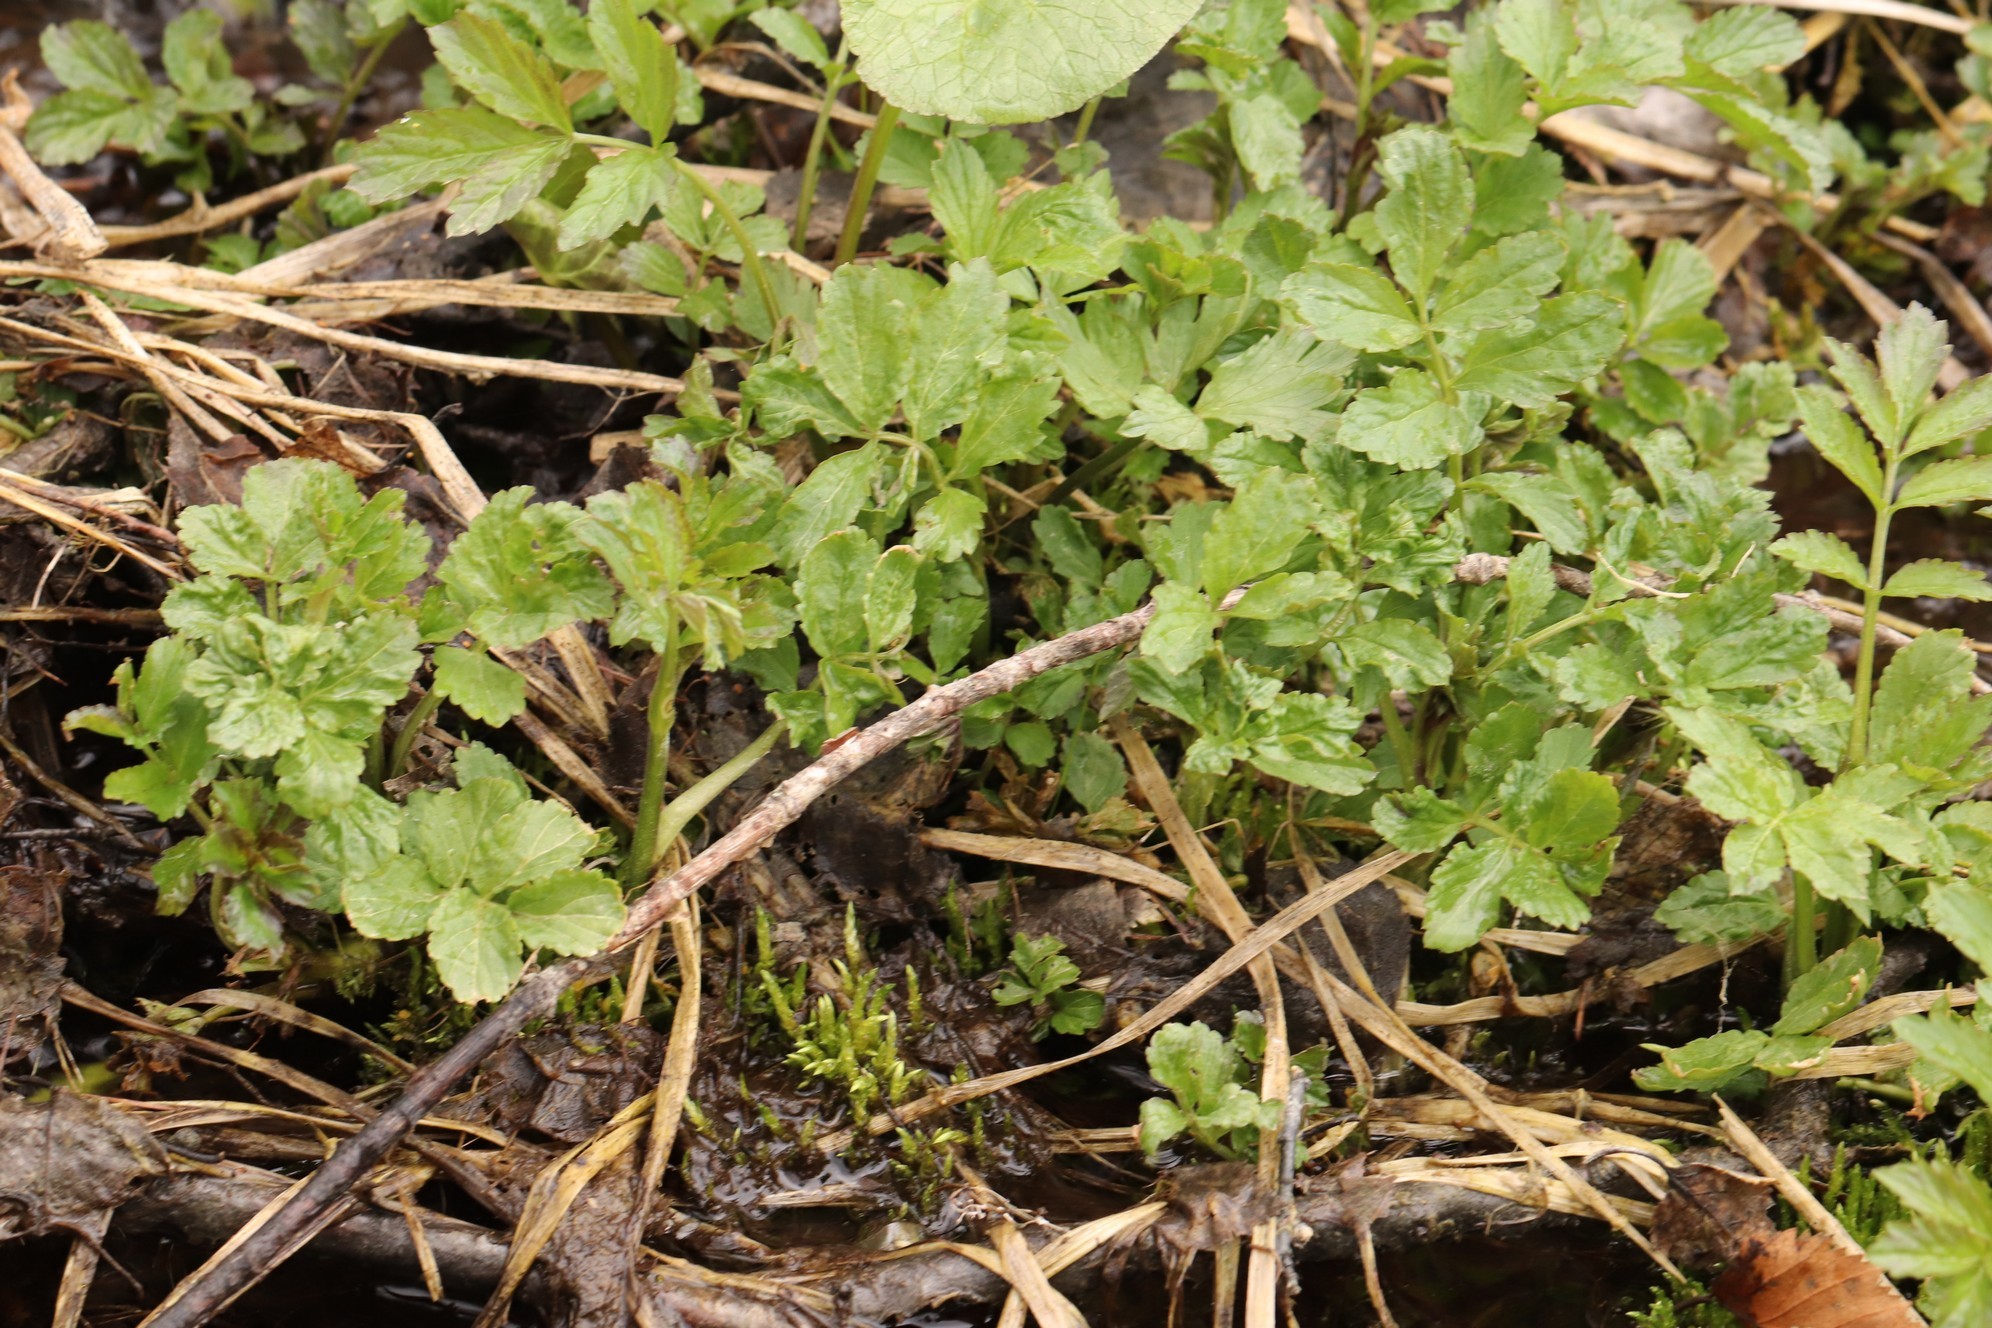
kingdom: Plantae
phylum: Tracheophyta
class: Magnoliopsida
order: Brassicales
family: Brassicaceae
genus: Cardamine
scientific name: Cardamine macrophylla
